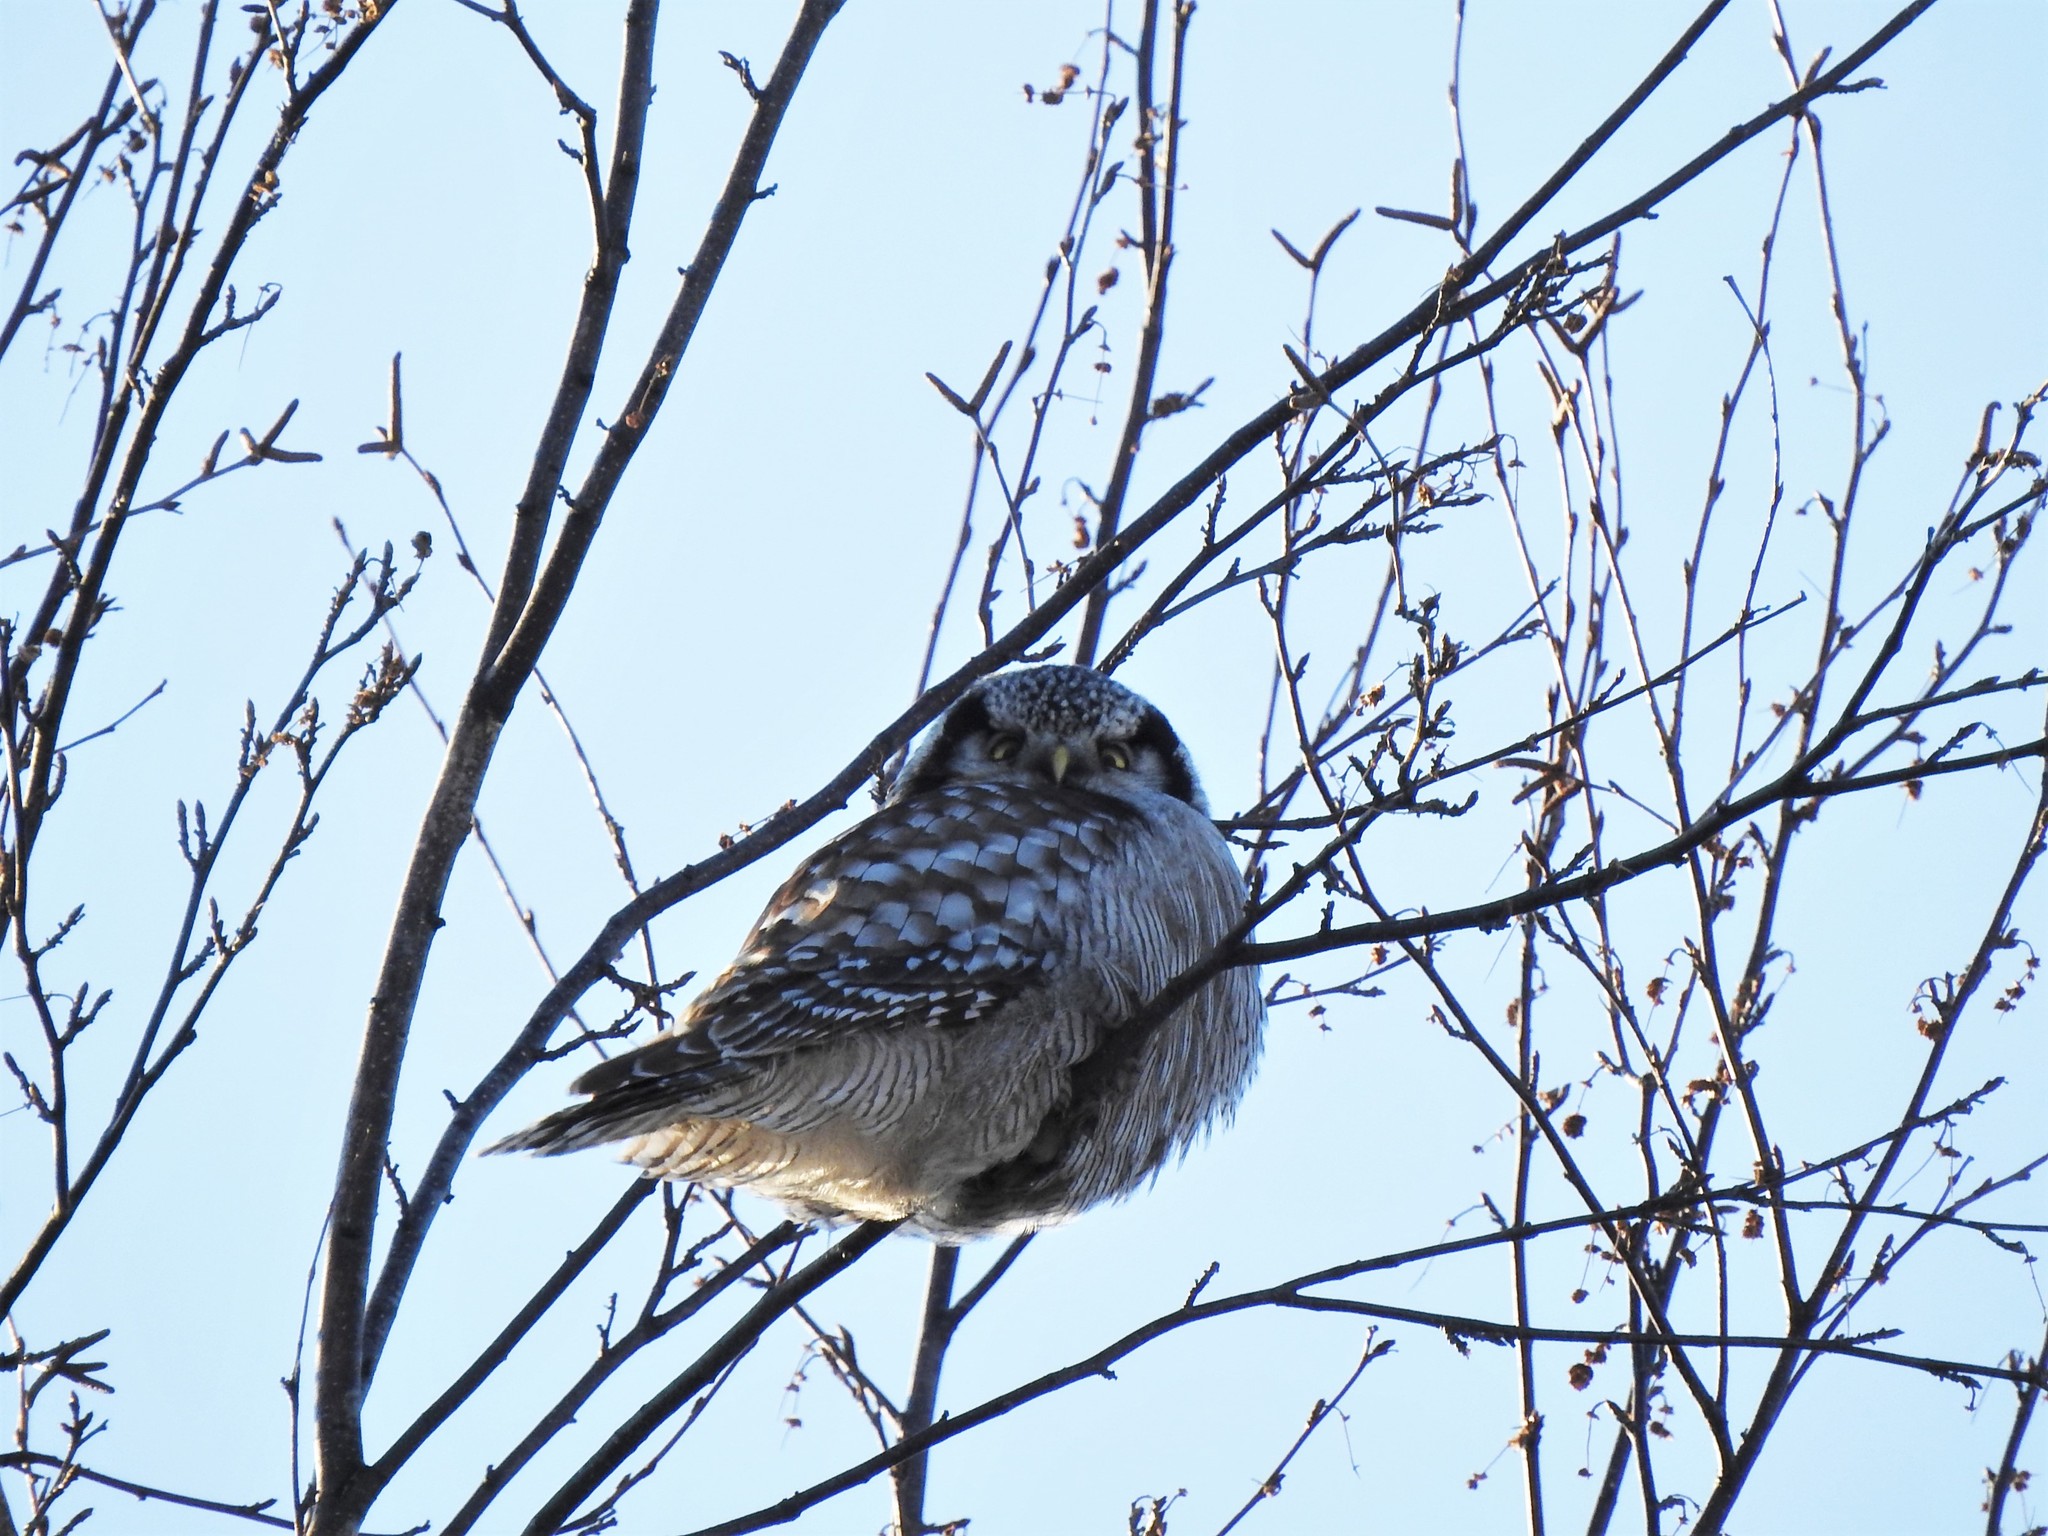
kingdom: Animalia
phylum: Chordata
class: Aves
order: Strigiformes
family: Strigidae
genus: Surnia
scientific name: Surnia ulula
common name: Northern hawk-owl
